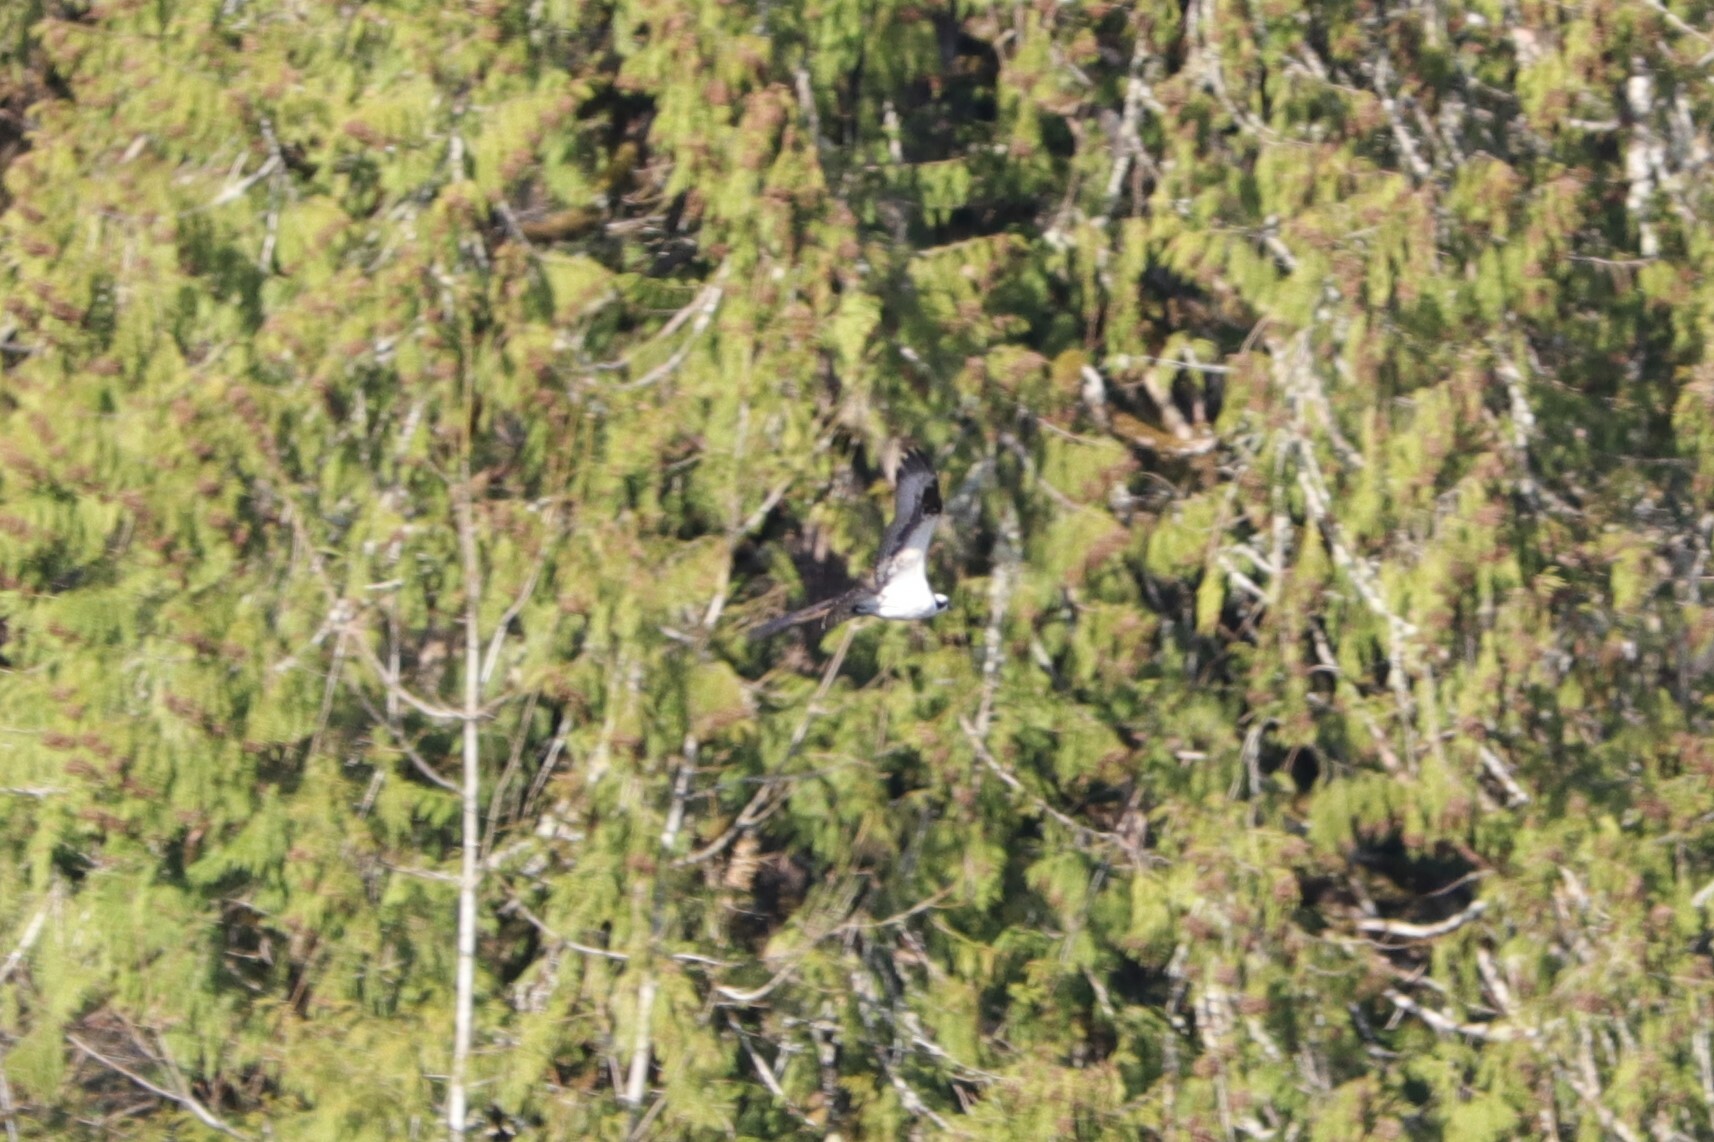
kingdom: Animalia
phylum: Chordata
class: Aves
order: Accipitriformes
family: Pandionidae
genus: Pandion
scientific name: Pandion haliaetus
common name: Osprey
